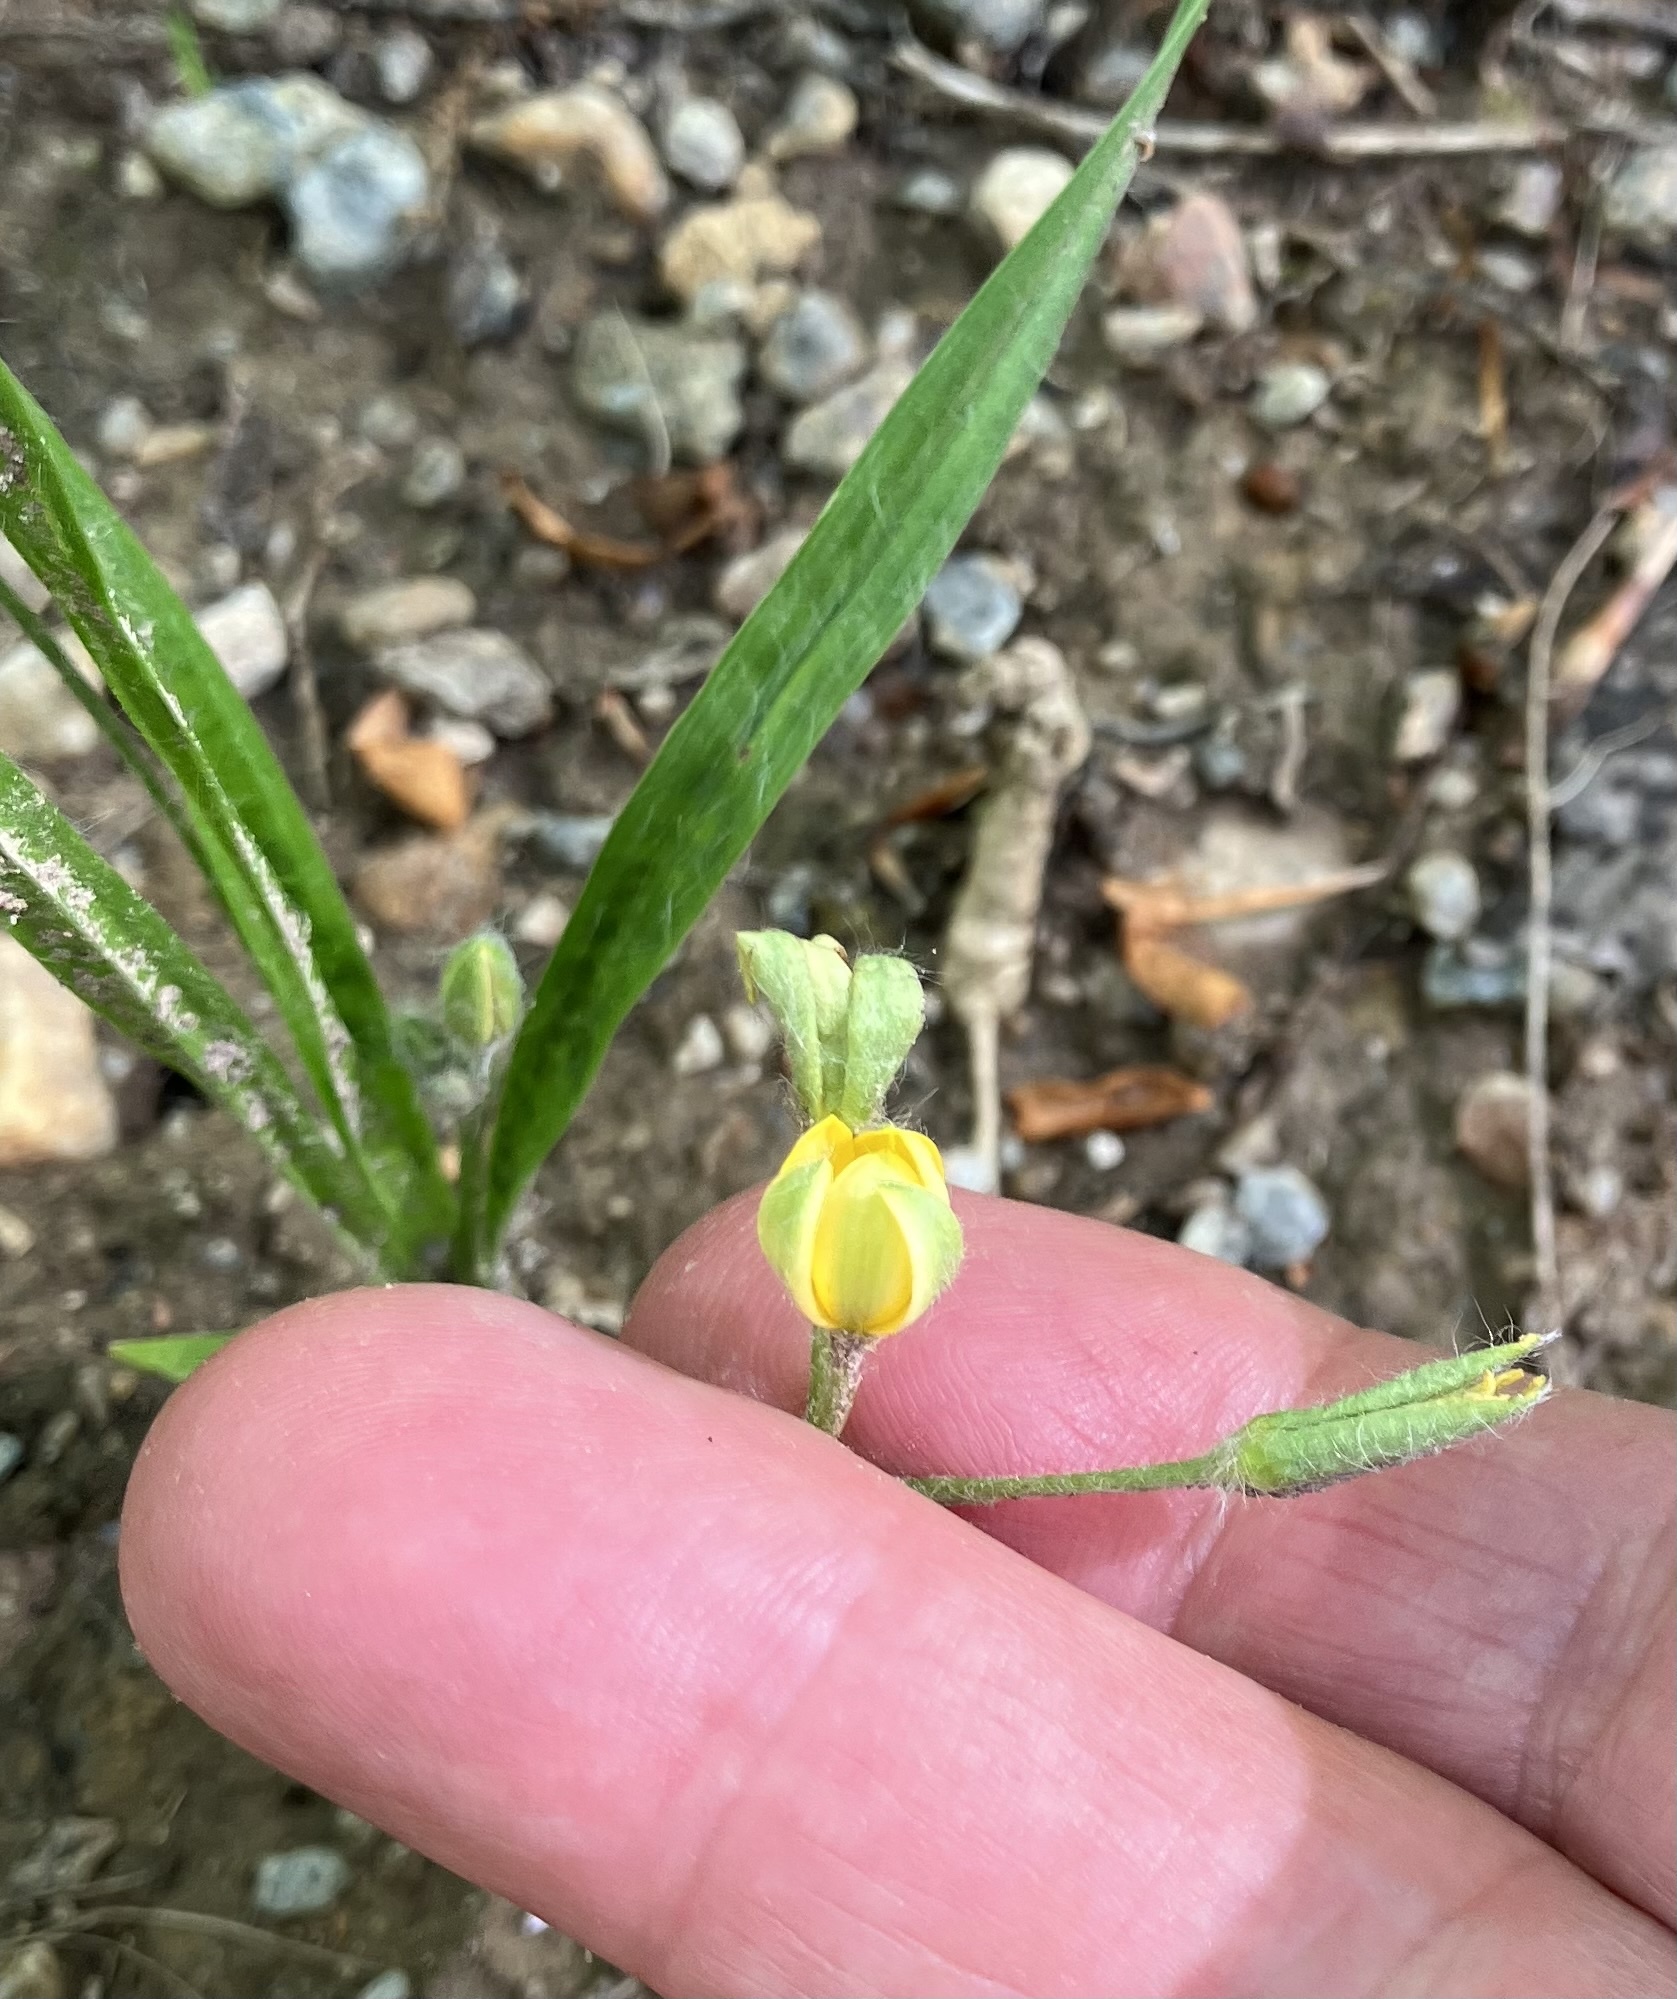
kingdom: Plantae
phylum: Tracheophyta
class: Liliopsida
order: Asparagales
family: Hypoxidaceae
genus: Hypoxis
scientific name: Hypoxis hirsuta
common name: Common goldstar
